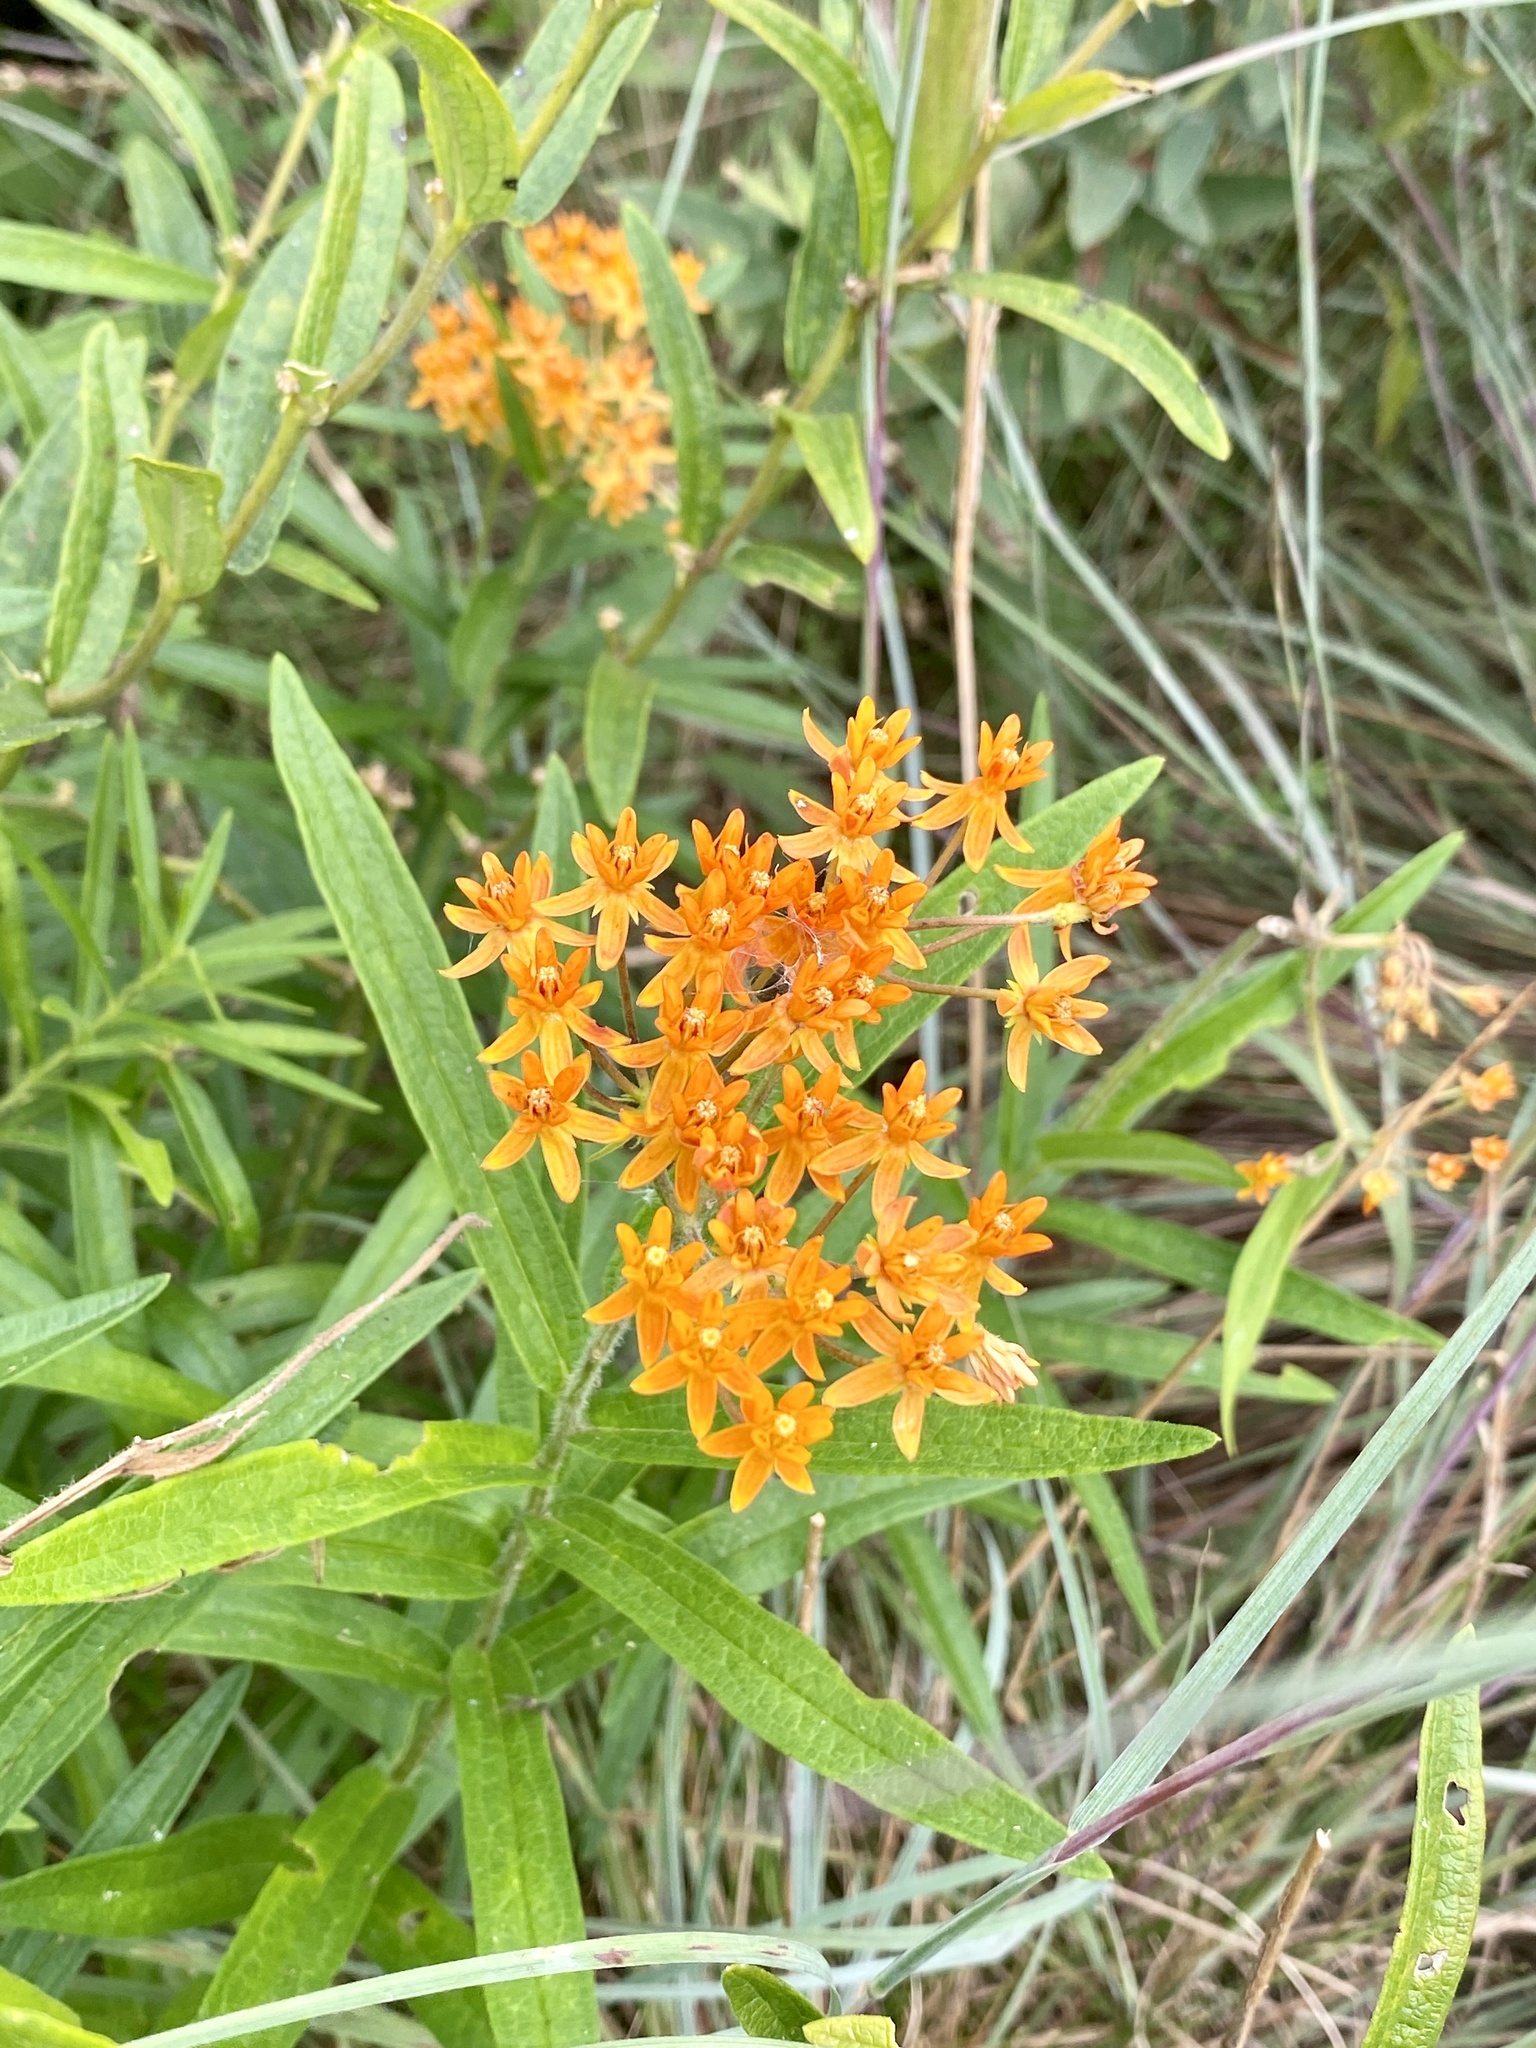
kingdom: Plantae
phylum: Tracheophyta
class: Magnoliopsida
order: Gentianales
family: Apocynaceae
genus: Asclepias
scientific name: Asclepias tuberosa
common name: Butterfly milkweed
